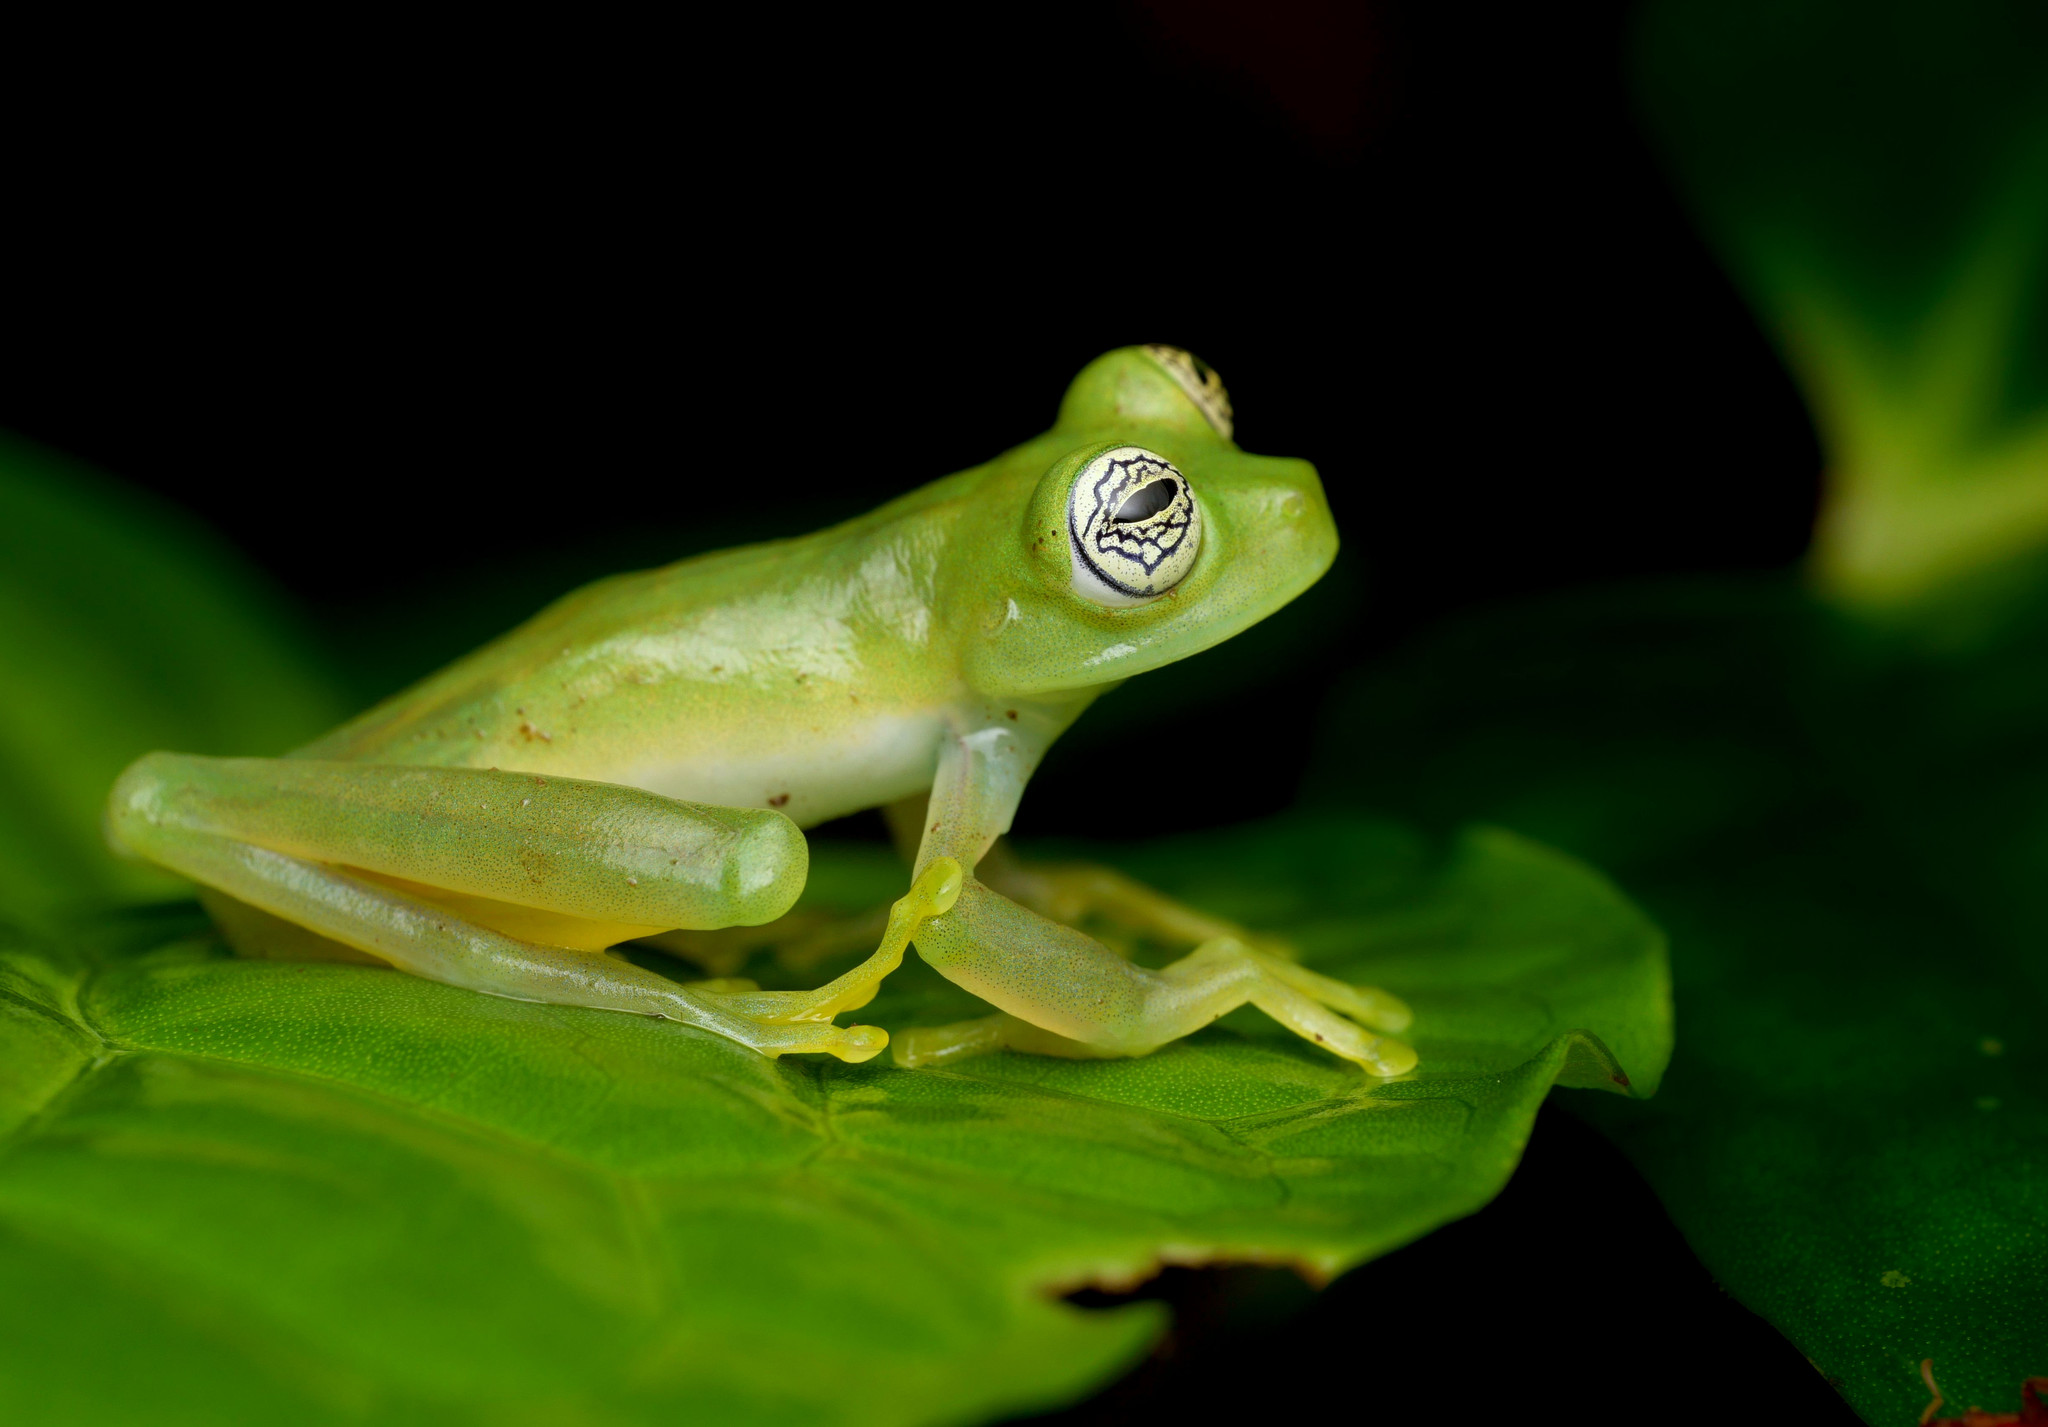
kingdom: Animalia
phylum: Chordata
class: Amphibia
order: Anura
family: Centrolenidae
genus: Sachatamia
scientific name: Sachatamia ilex
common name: Rana de cristal de ojo esplendoroso
